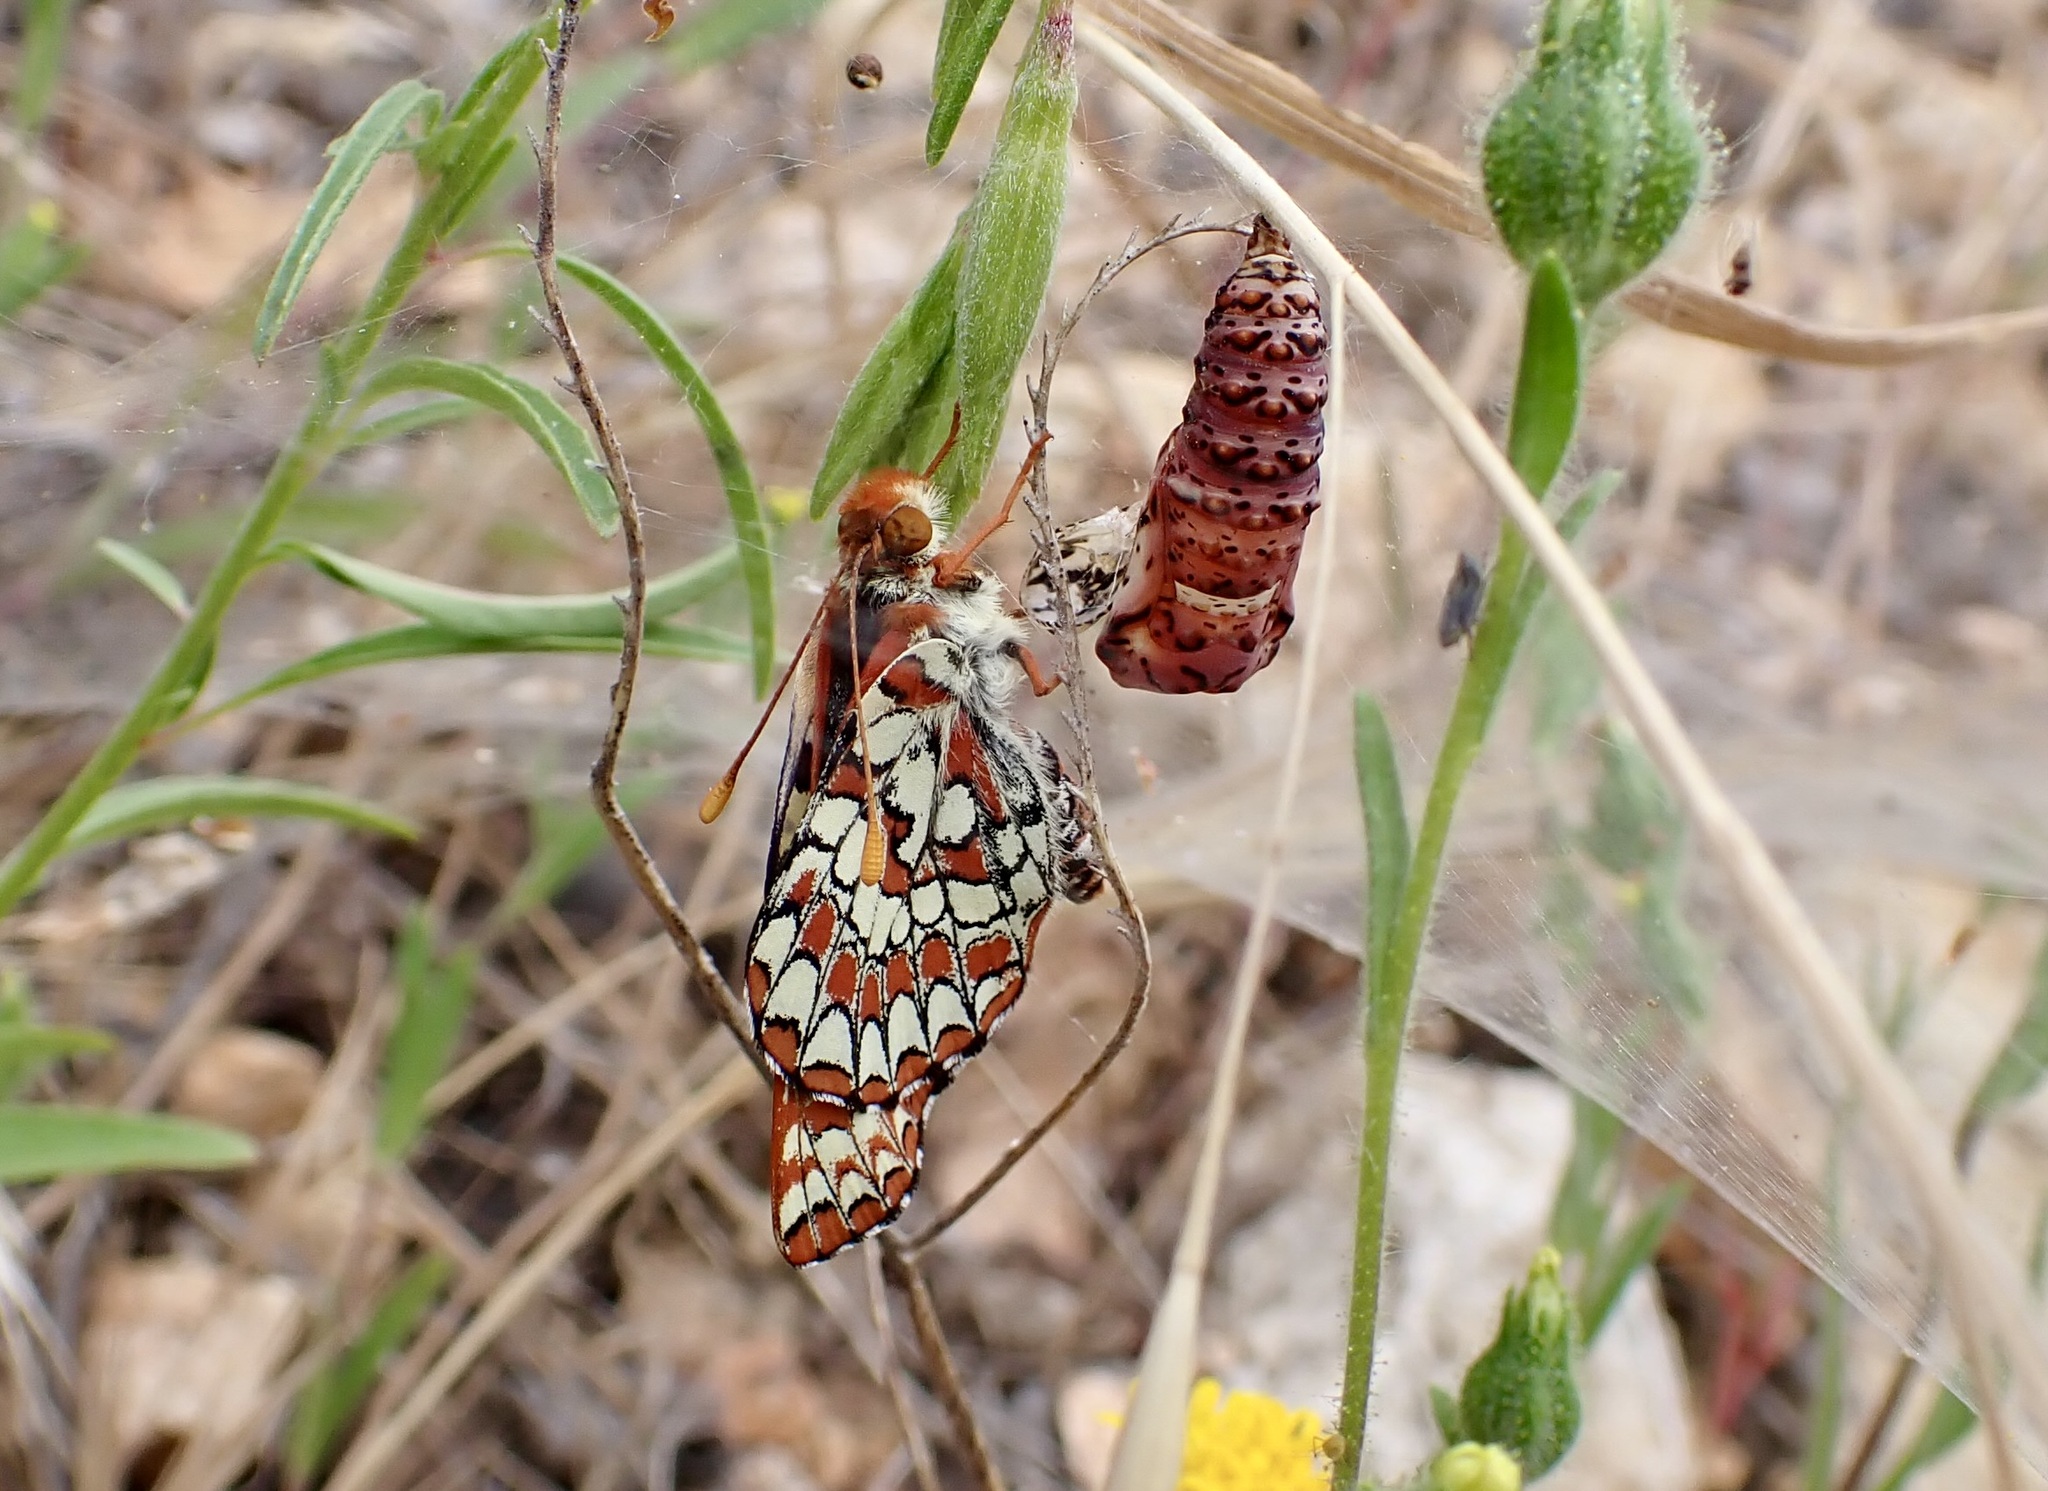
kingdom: Animalia
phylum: Arthropoda
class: Insecta
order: Lepidoptera
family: Nymphalidae
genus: Occidryas
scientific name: Occidryas chalcedona
